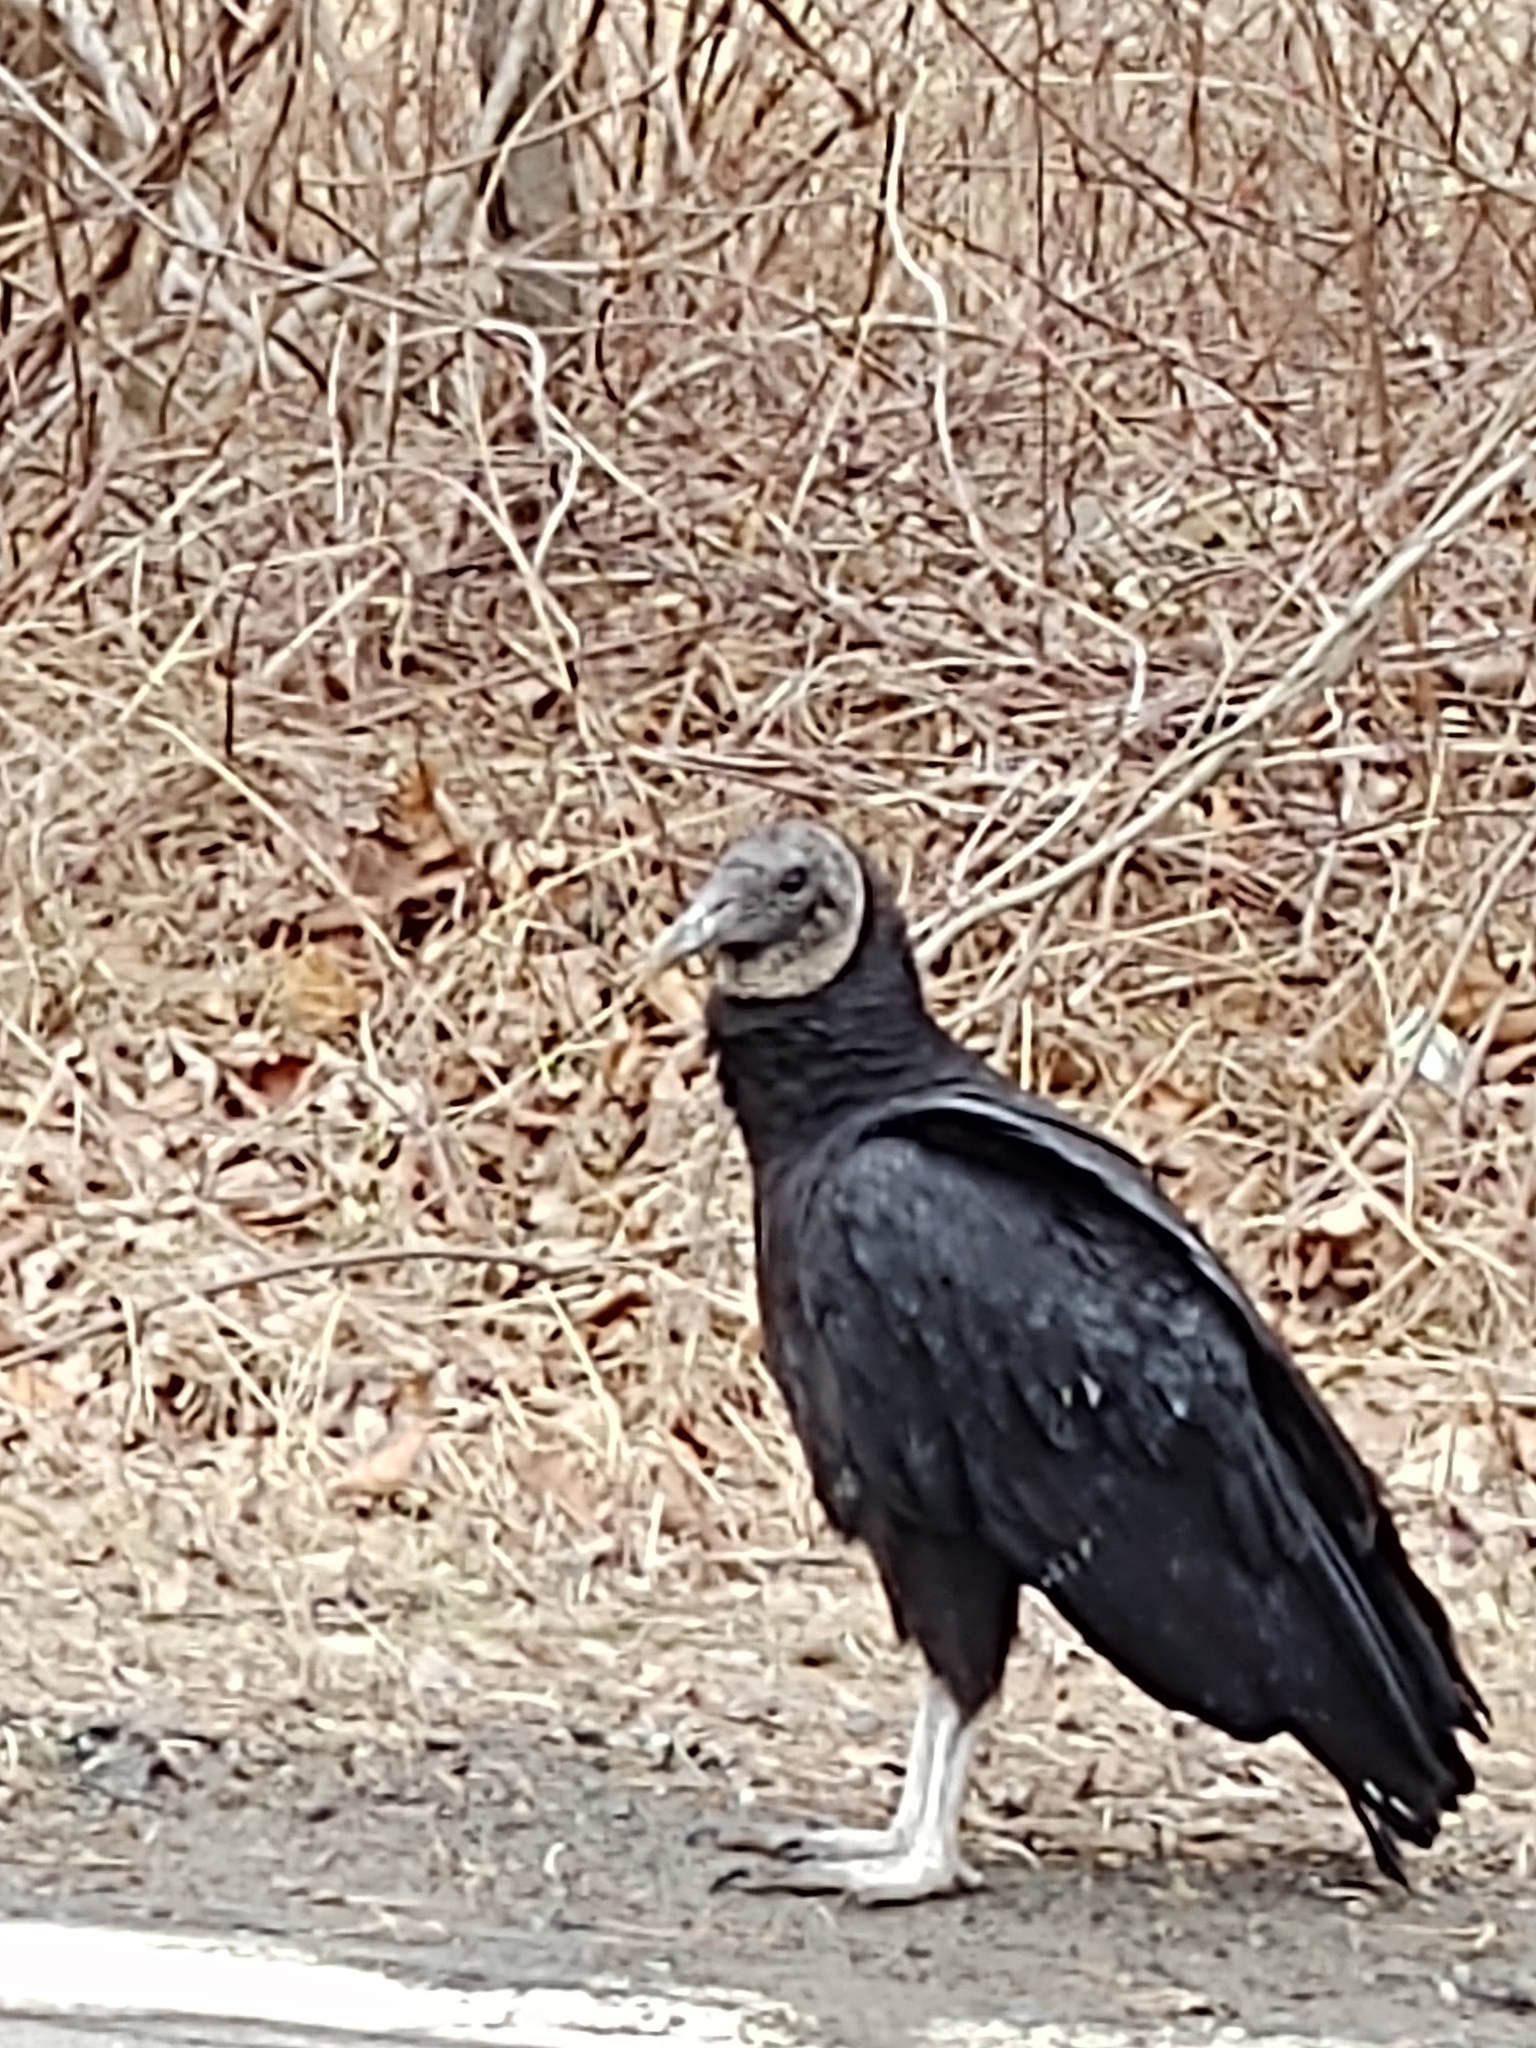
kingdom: Animalia
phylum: Chordata
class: Aves
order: Accipitriformes
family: Cathartidae
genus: Coragyps
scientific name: Coragyps atratus
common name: Black vulture
